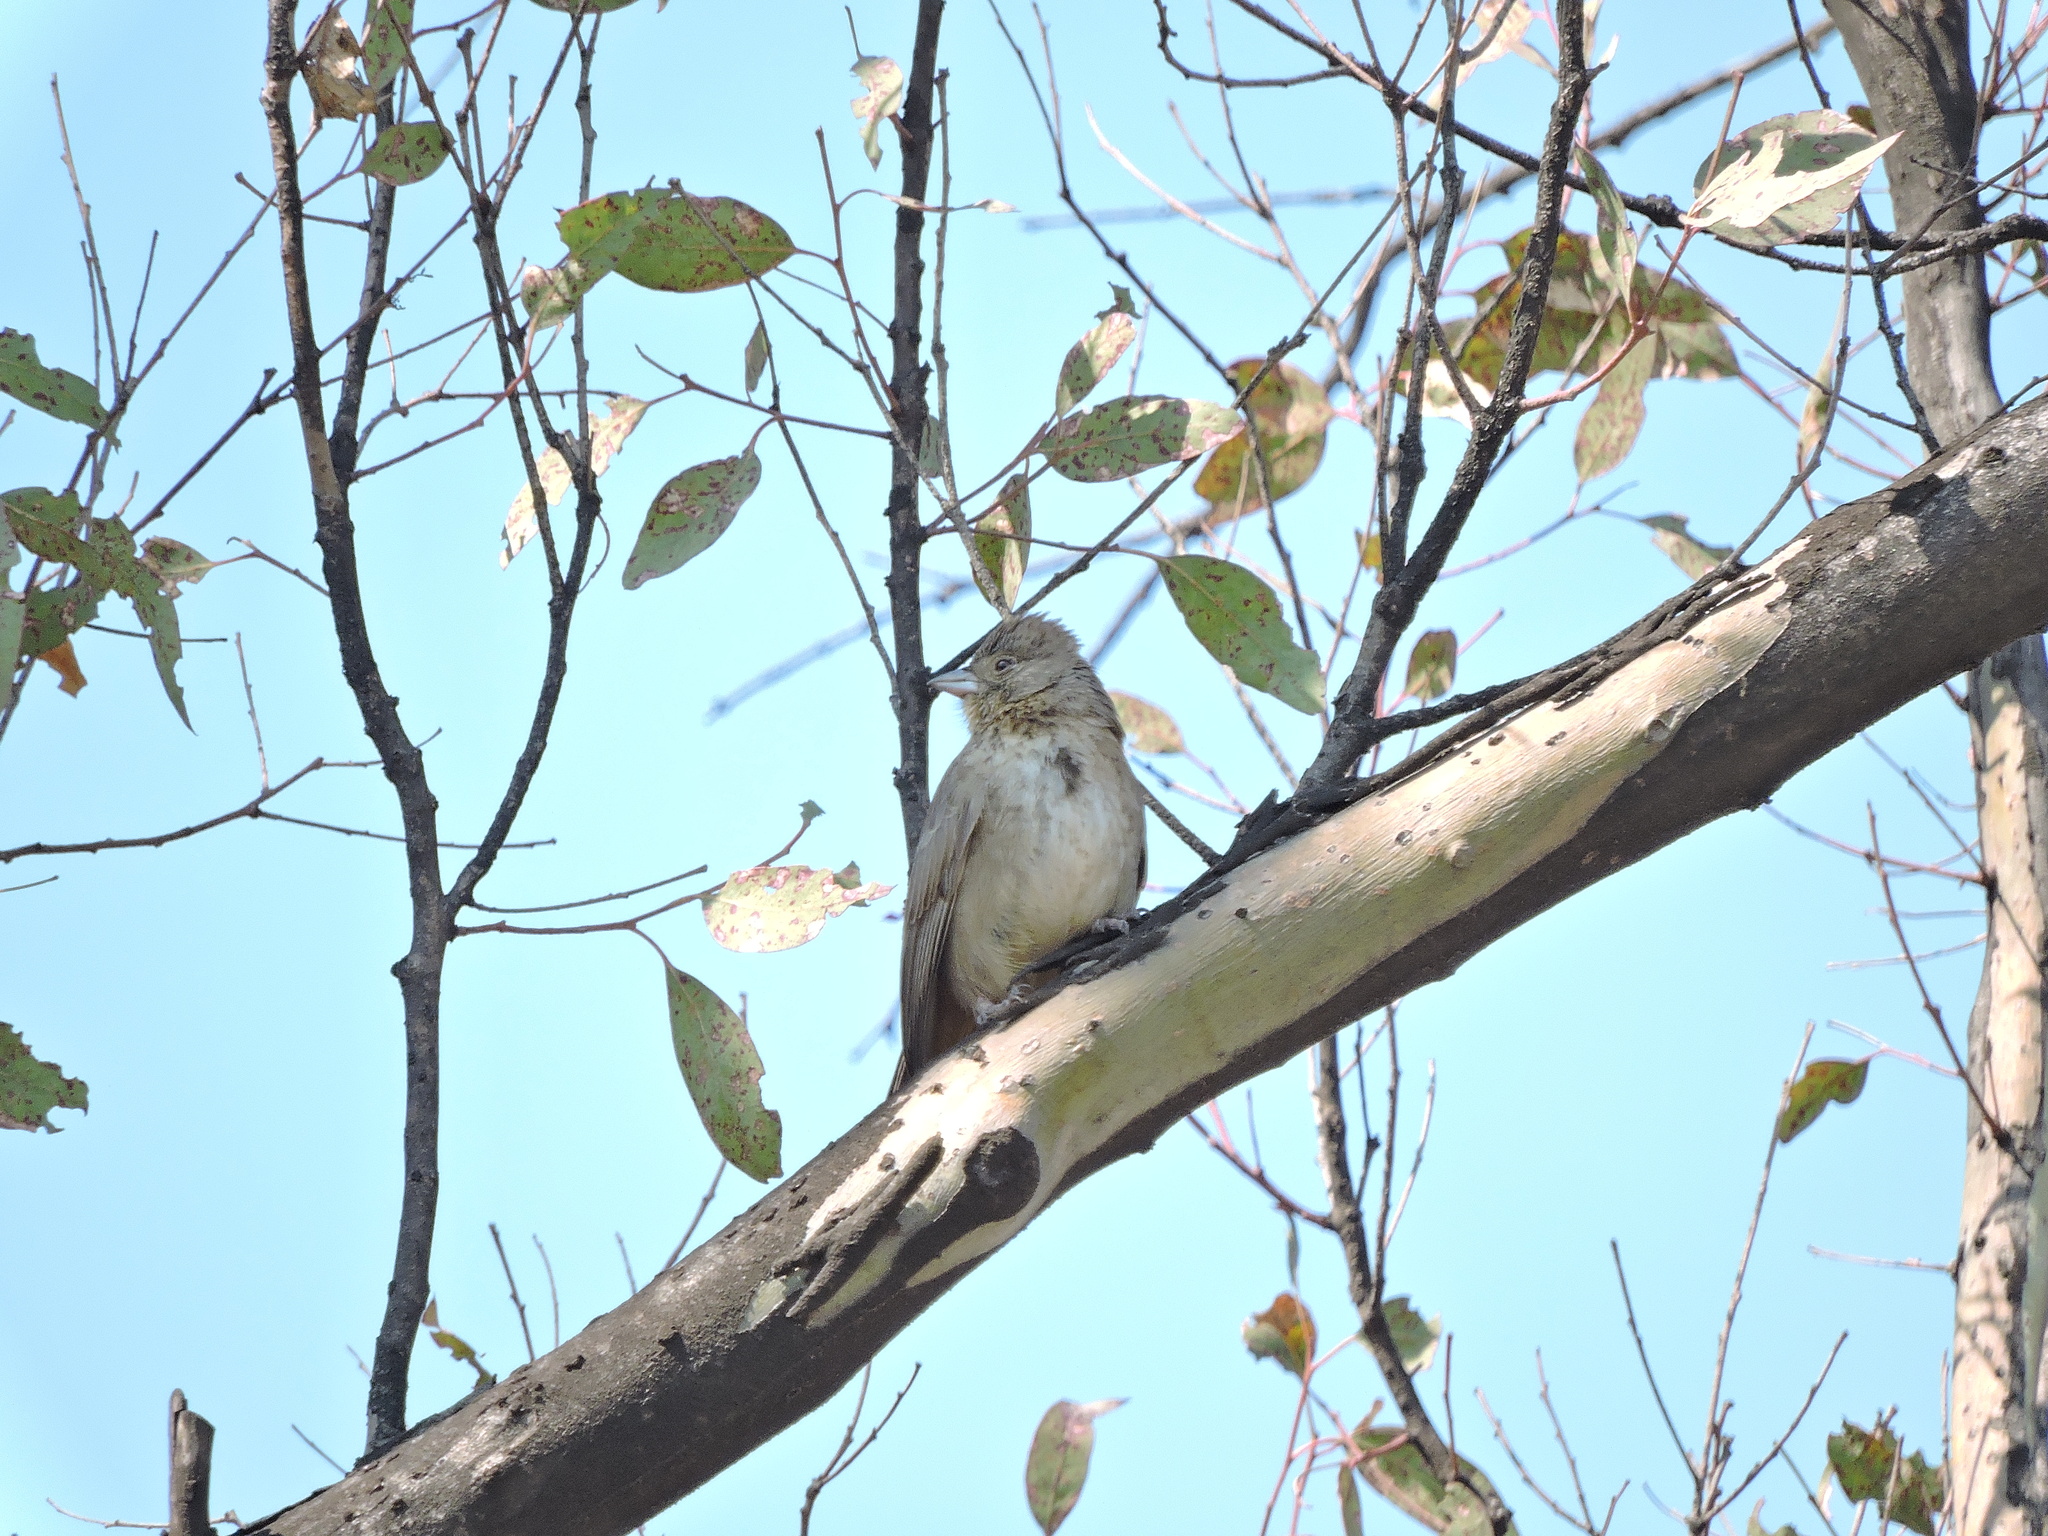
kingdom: Animalia
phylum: Chordata
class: Aves
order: Passeriformes
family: Passerellidae
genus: Melozone
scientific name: Melozone fusca
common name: Canyon towhee
